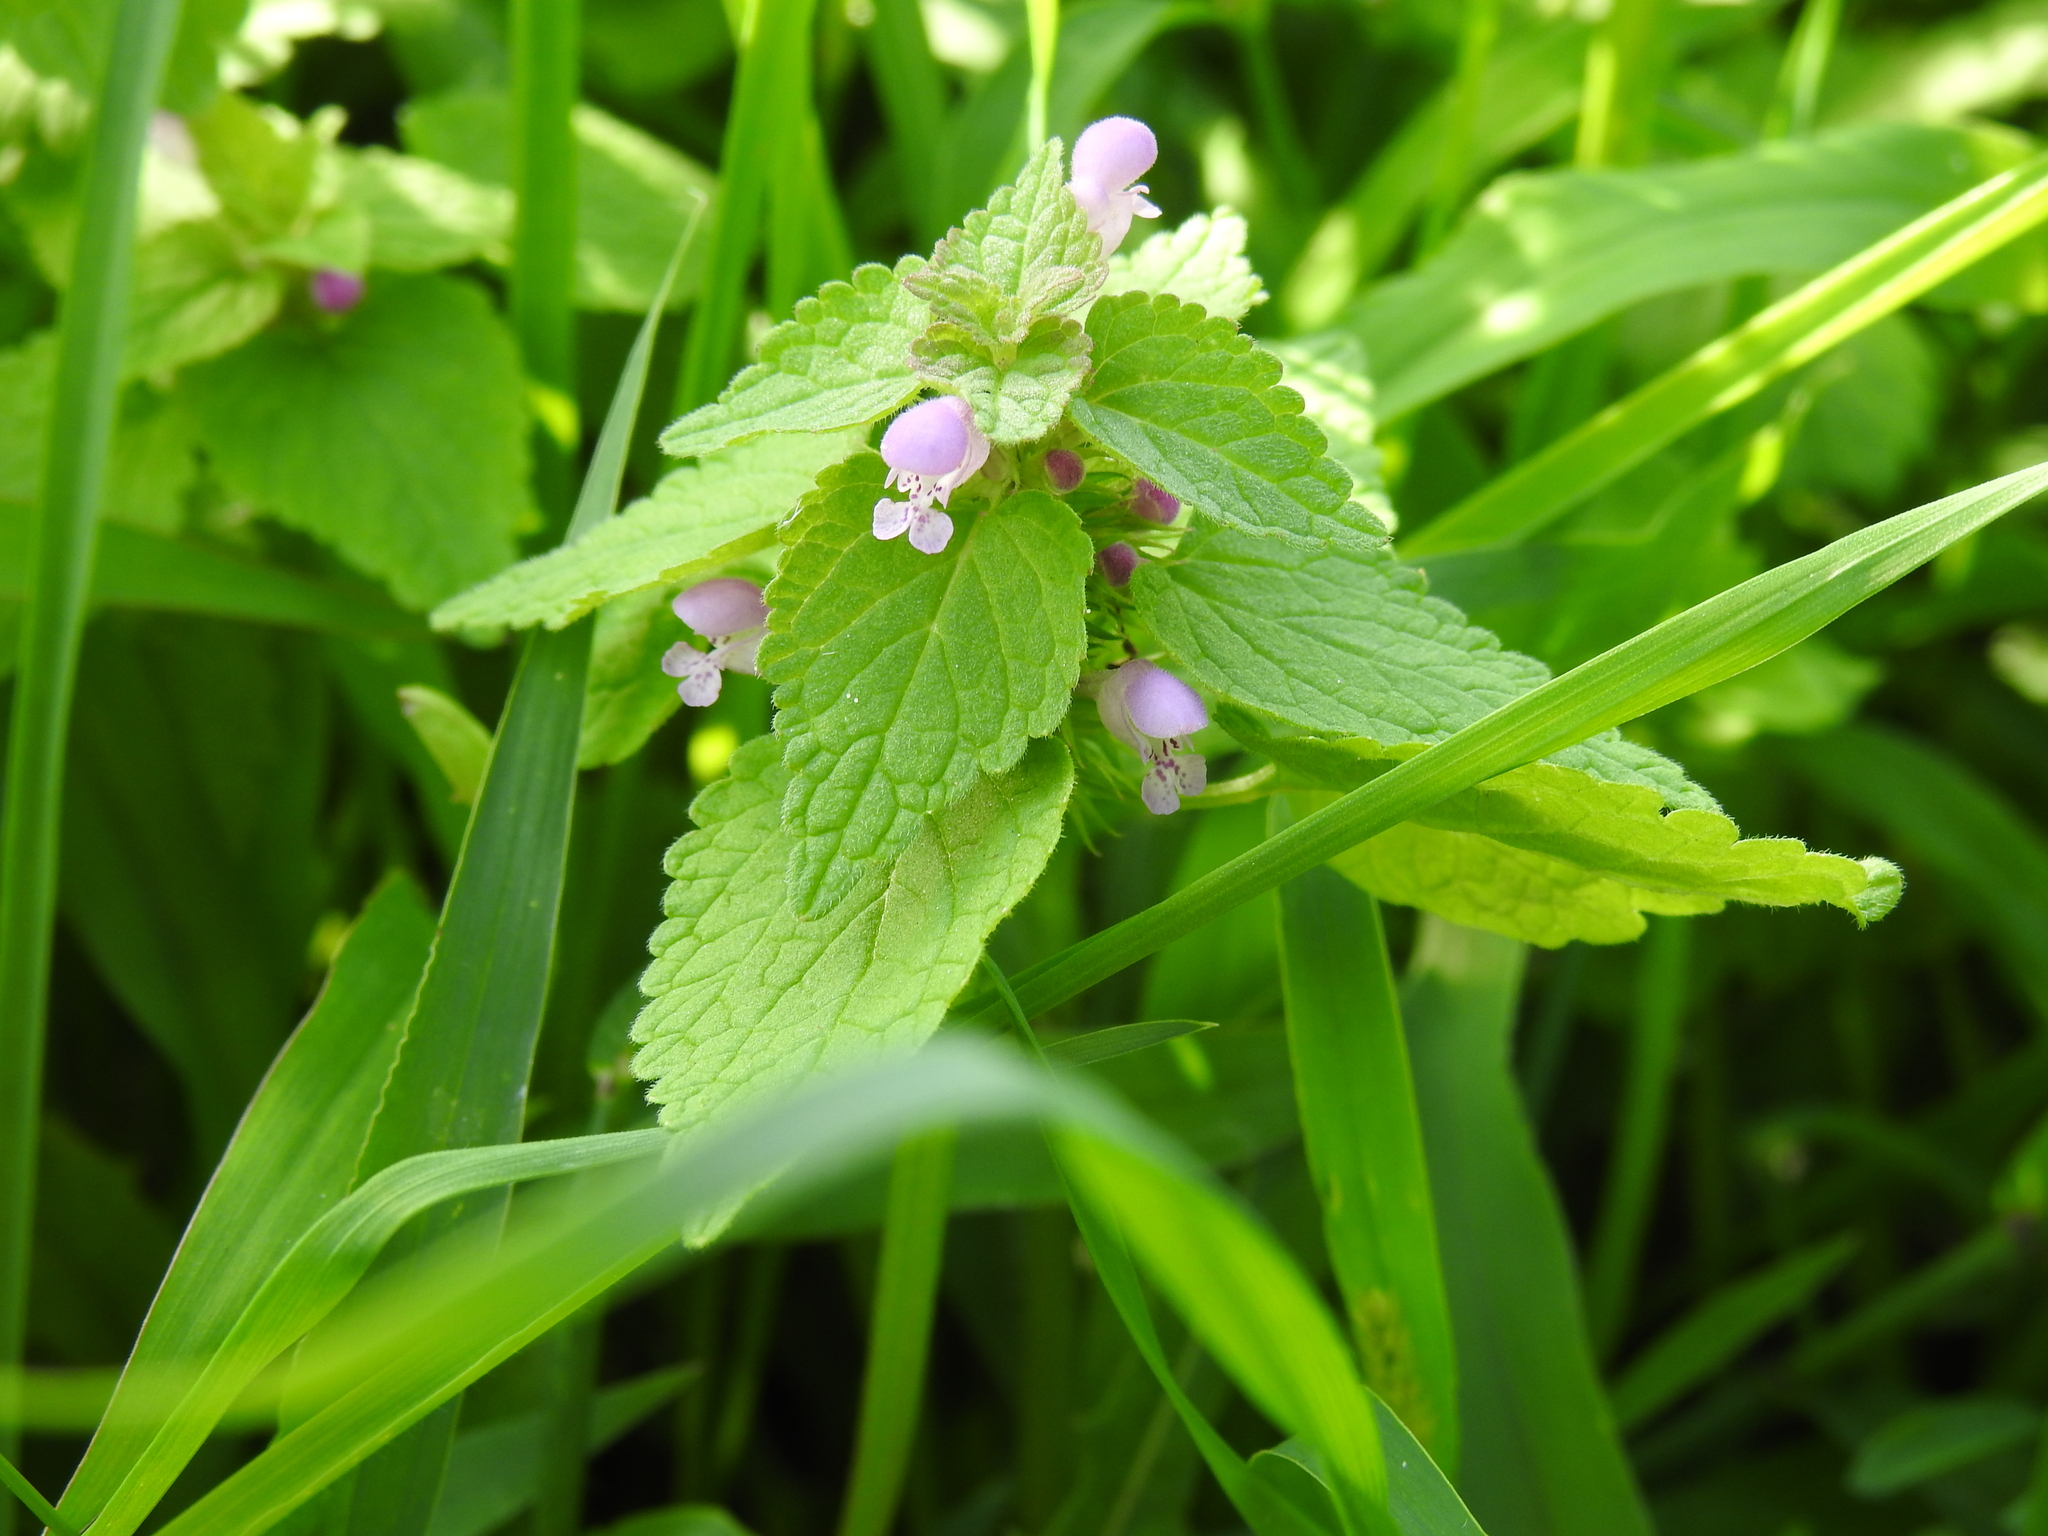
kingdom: Plantae
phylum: Tracheophyta
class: Magnoliopsida
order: Lamiales
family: Lamiaceae
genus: Lamium
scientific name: Lamium purpureum
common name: Red dead-nettle
